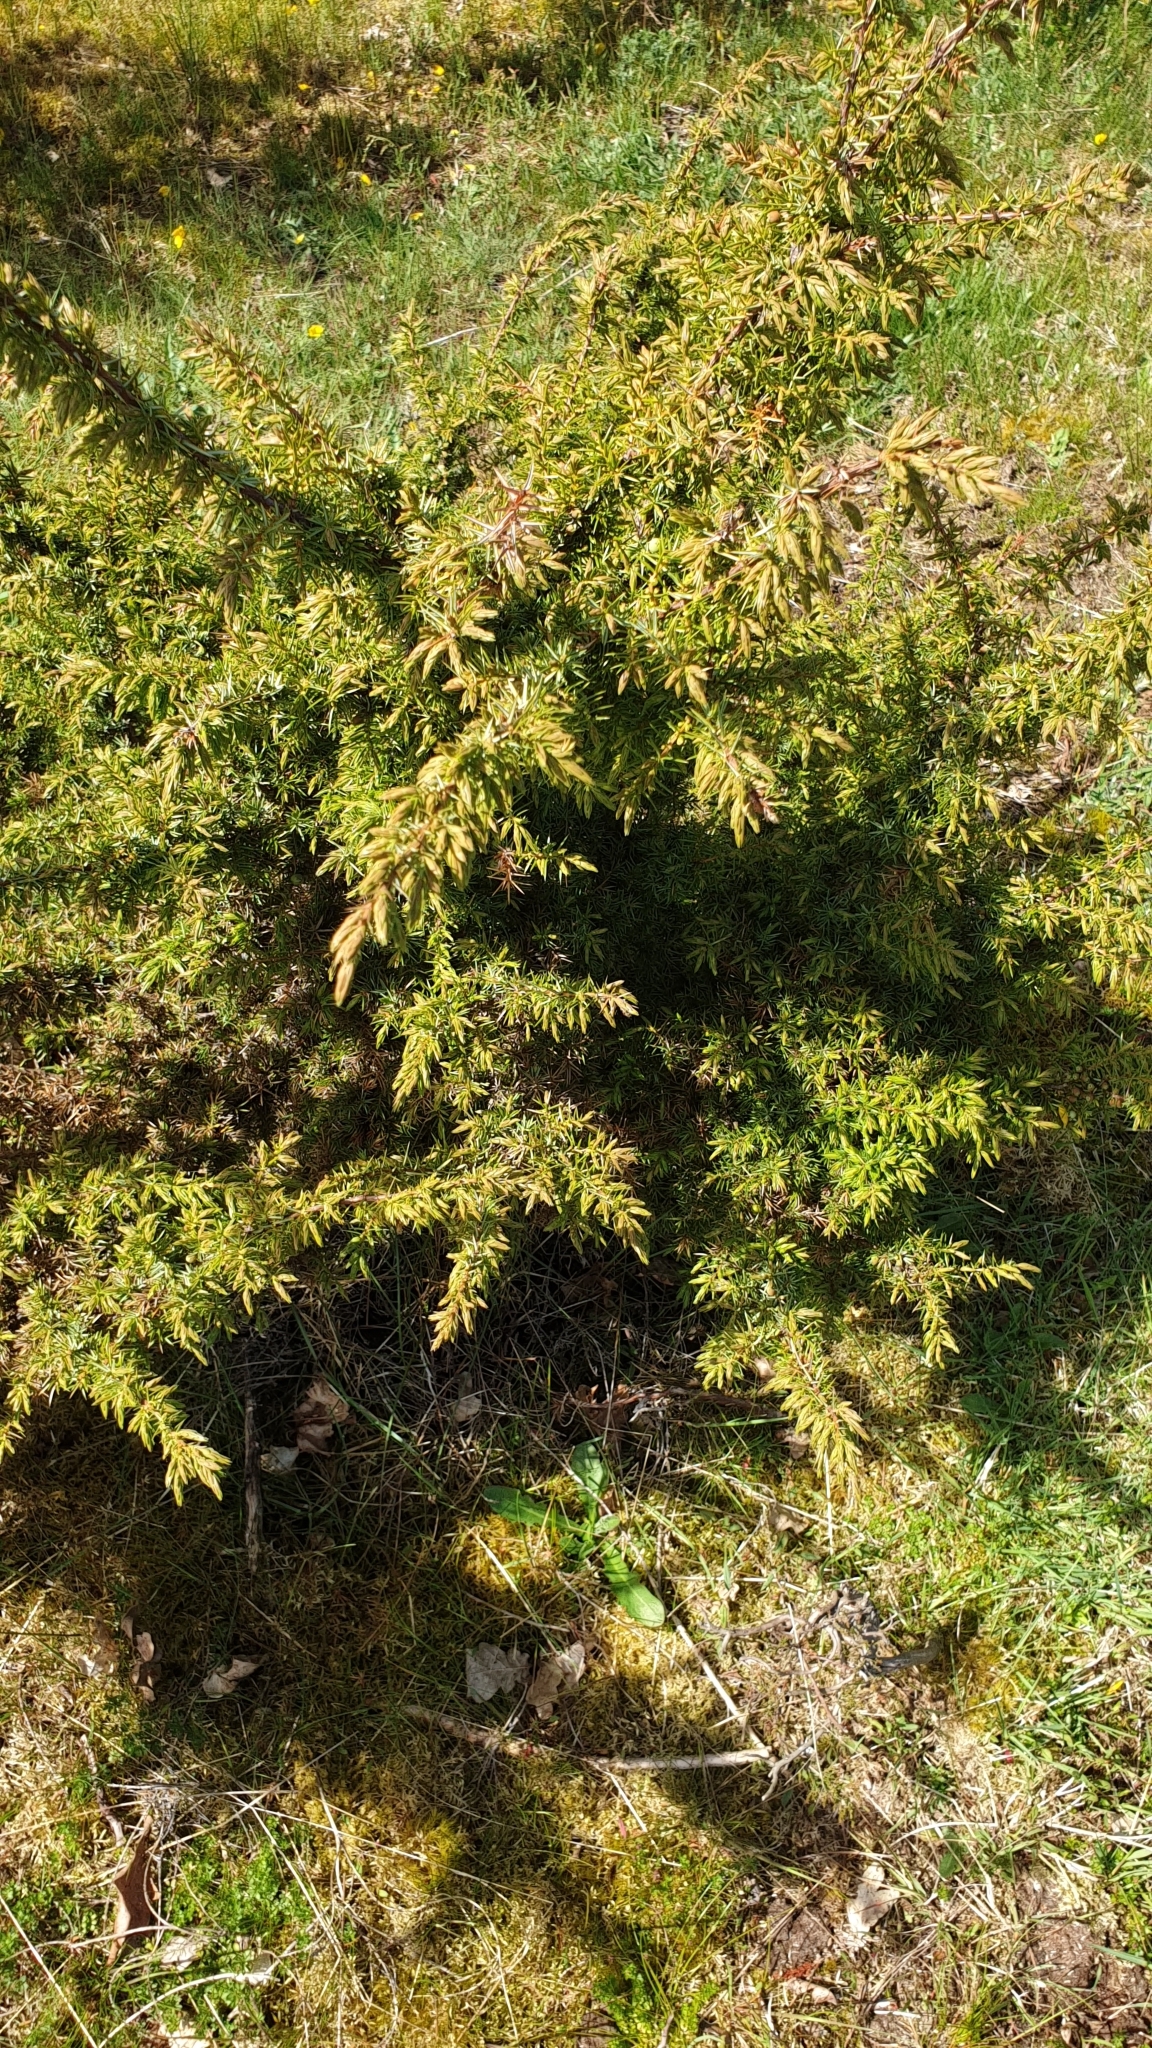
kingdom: Plantae
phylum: Tracheophyta
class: Pinopsida
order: Pinales
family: Cupressaceae
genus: Juniperus
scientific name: Juniperus communis
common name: Common juniper
